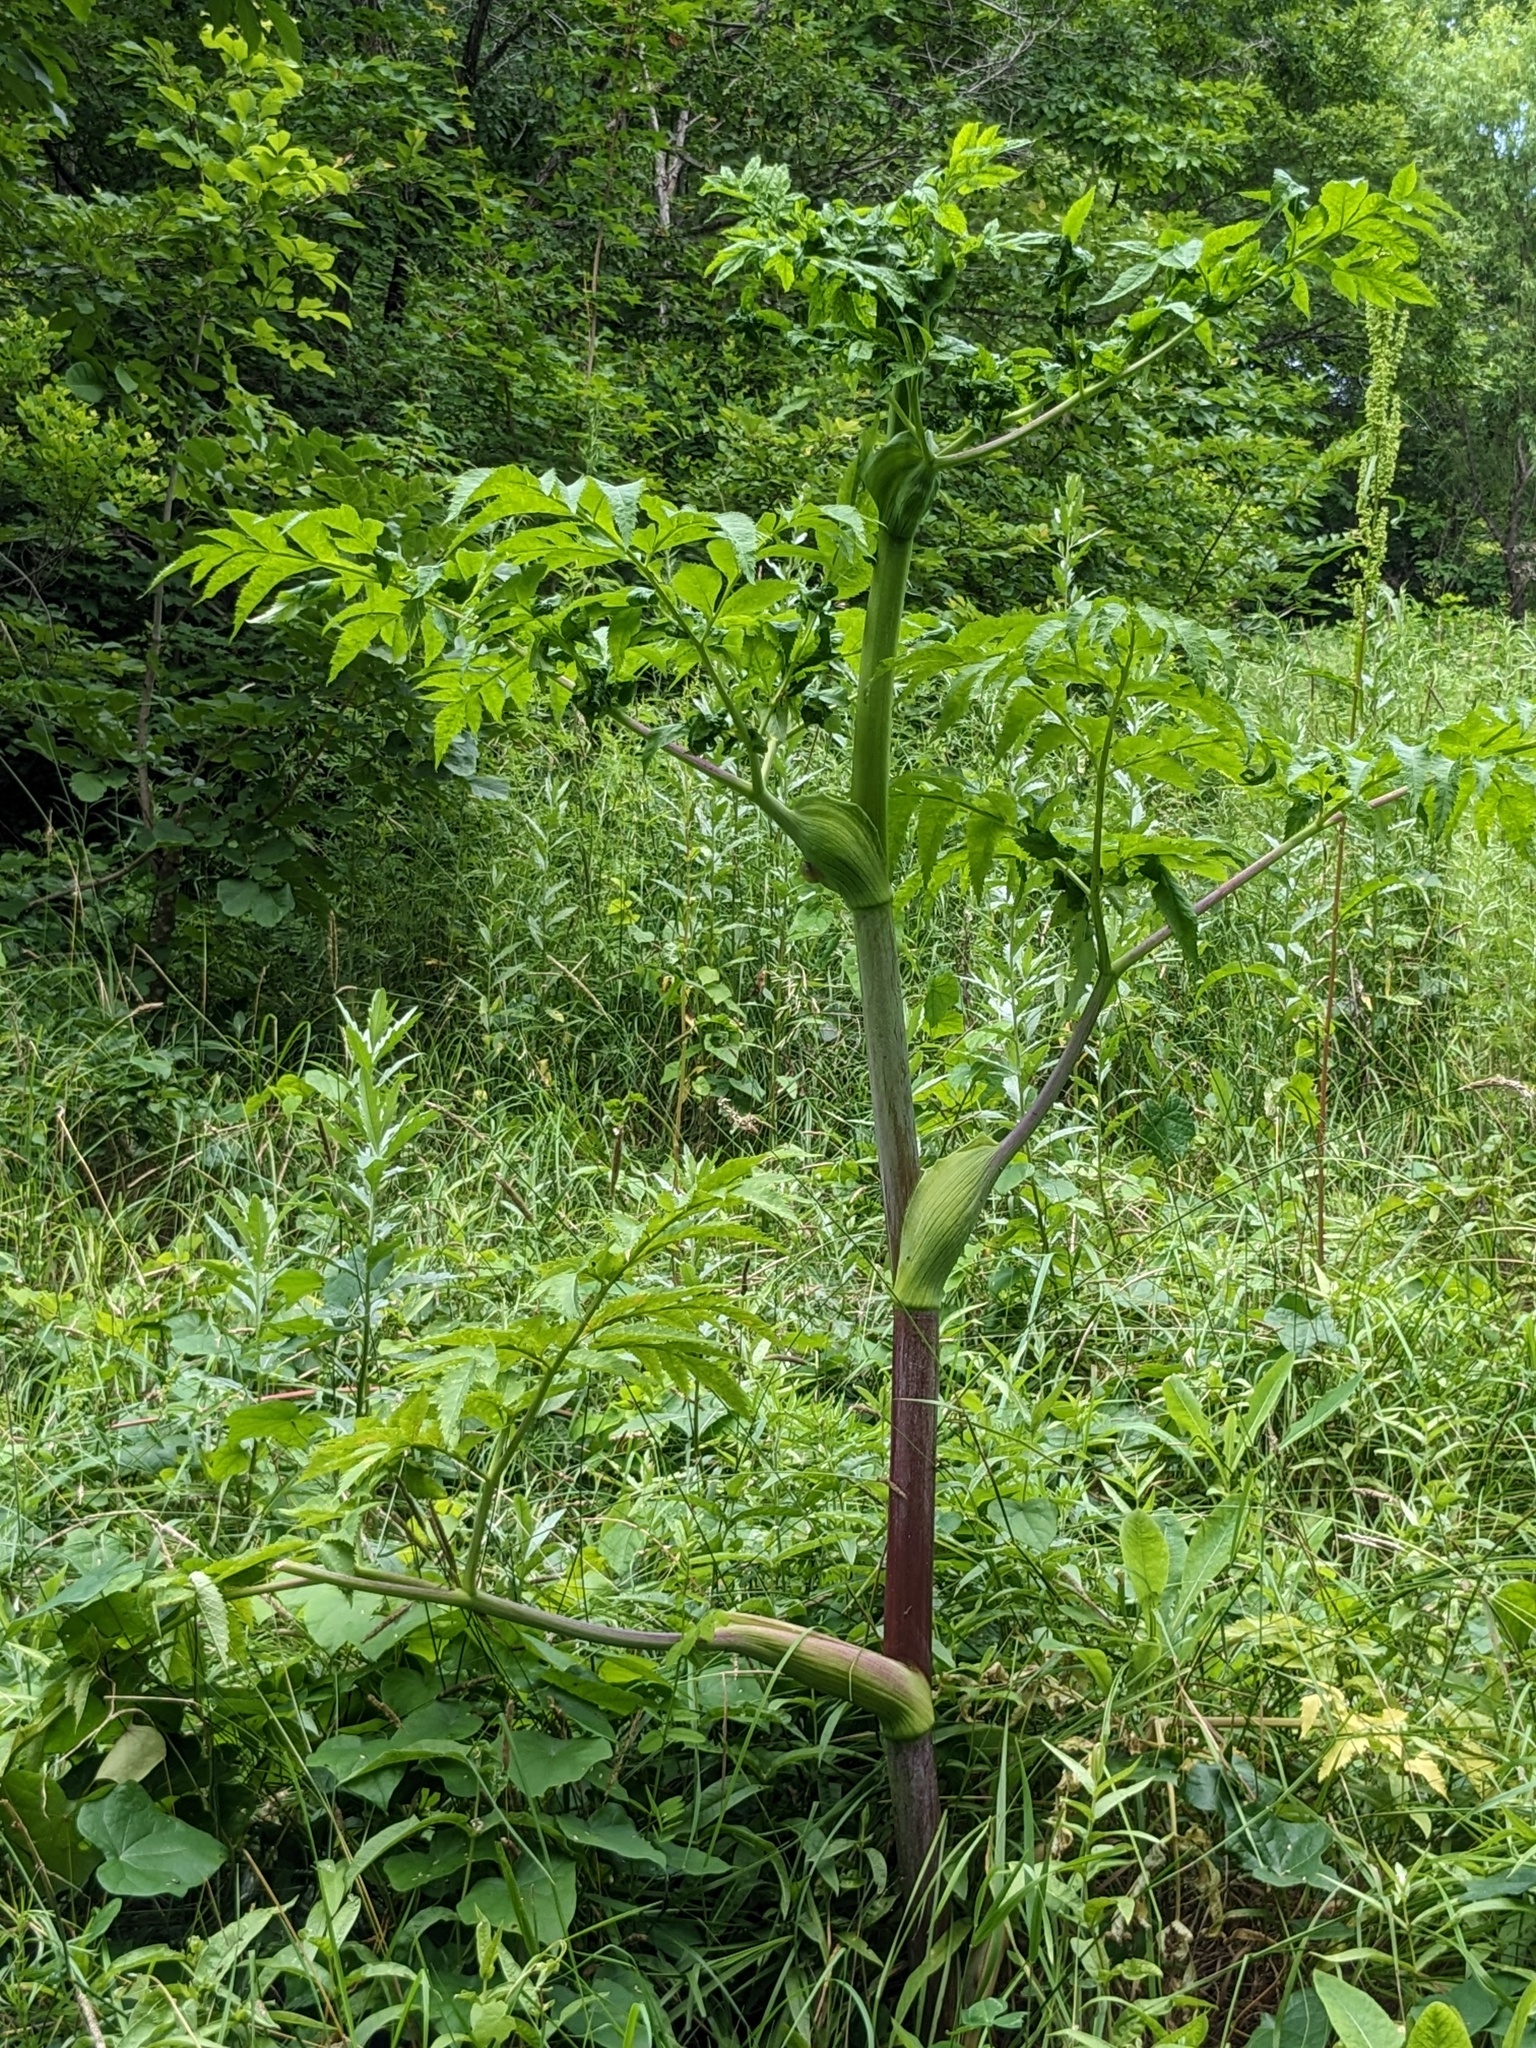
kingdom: Plantae
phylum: Tracheophyta
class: Magnoliopsida
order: Apiales
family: Apiaceae
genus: Angelica
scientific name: Angelica dahurica
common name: Dahurian angelica
